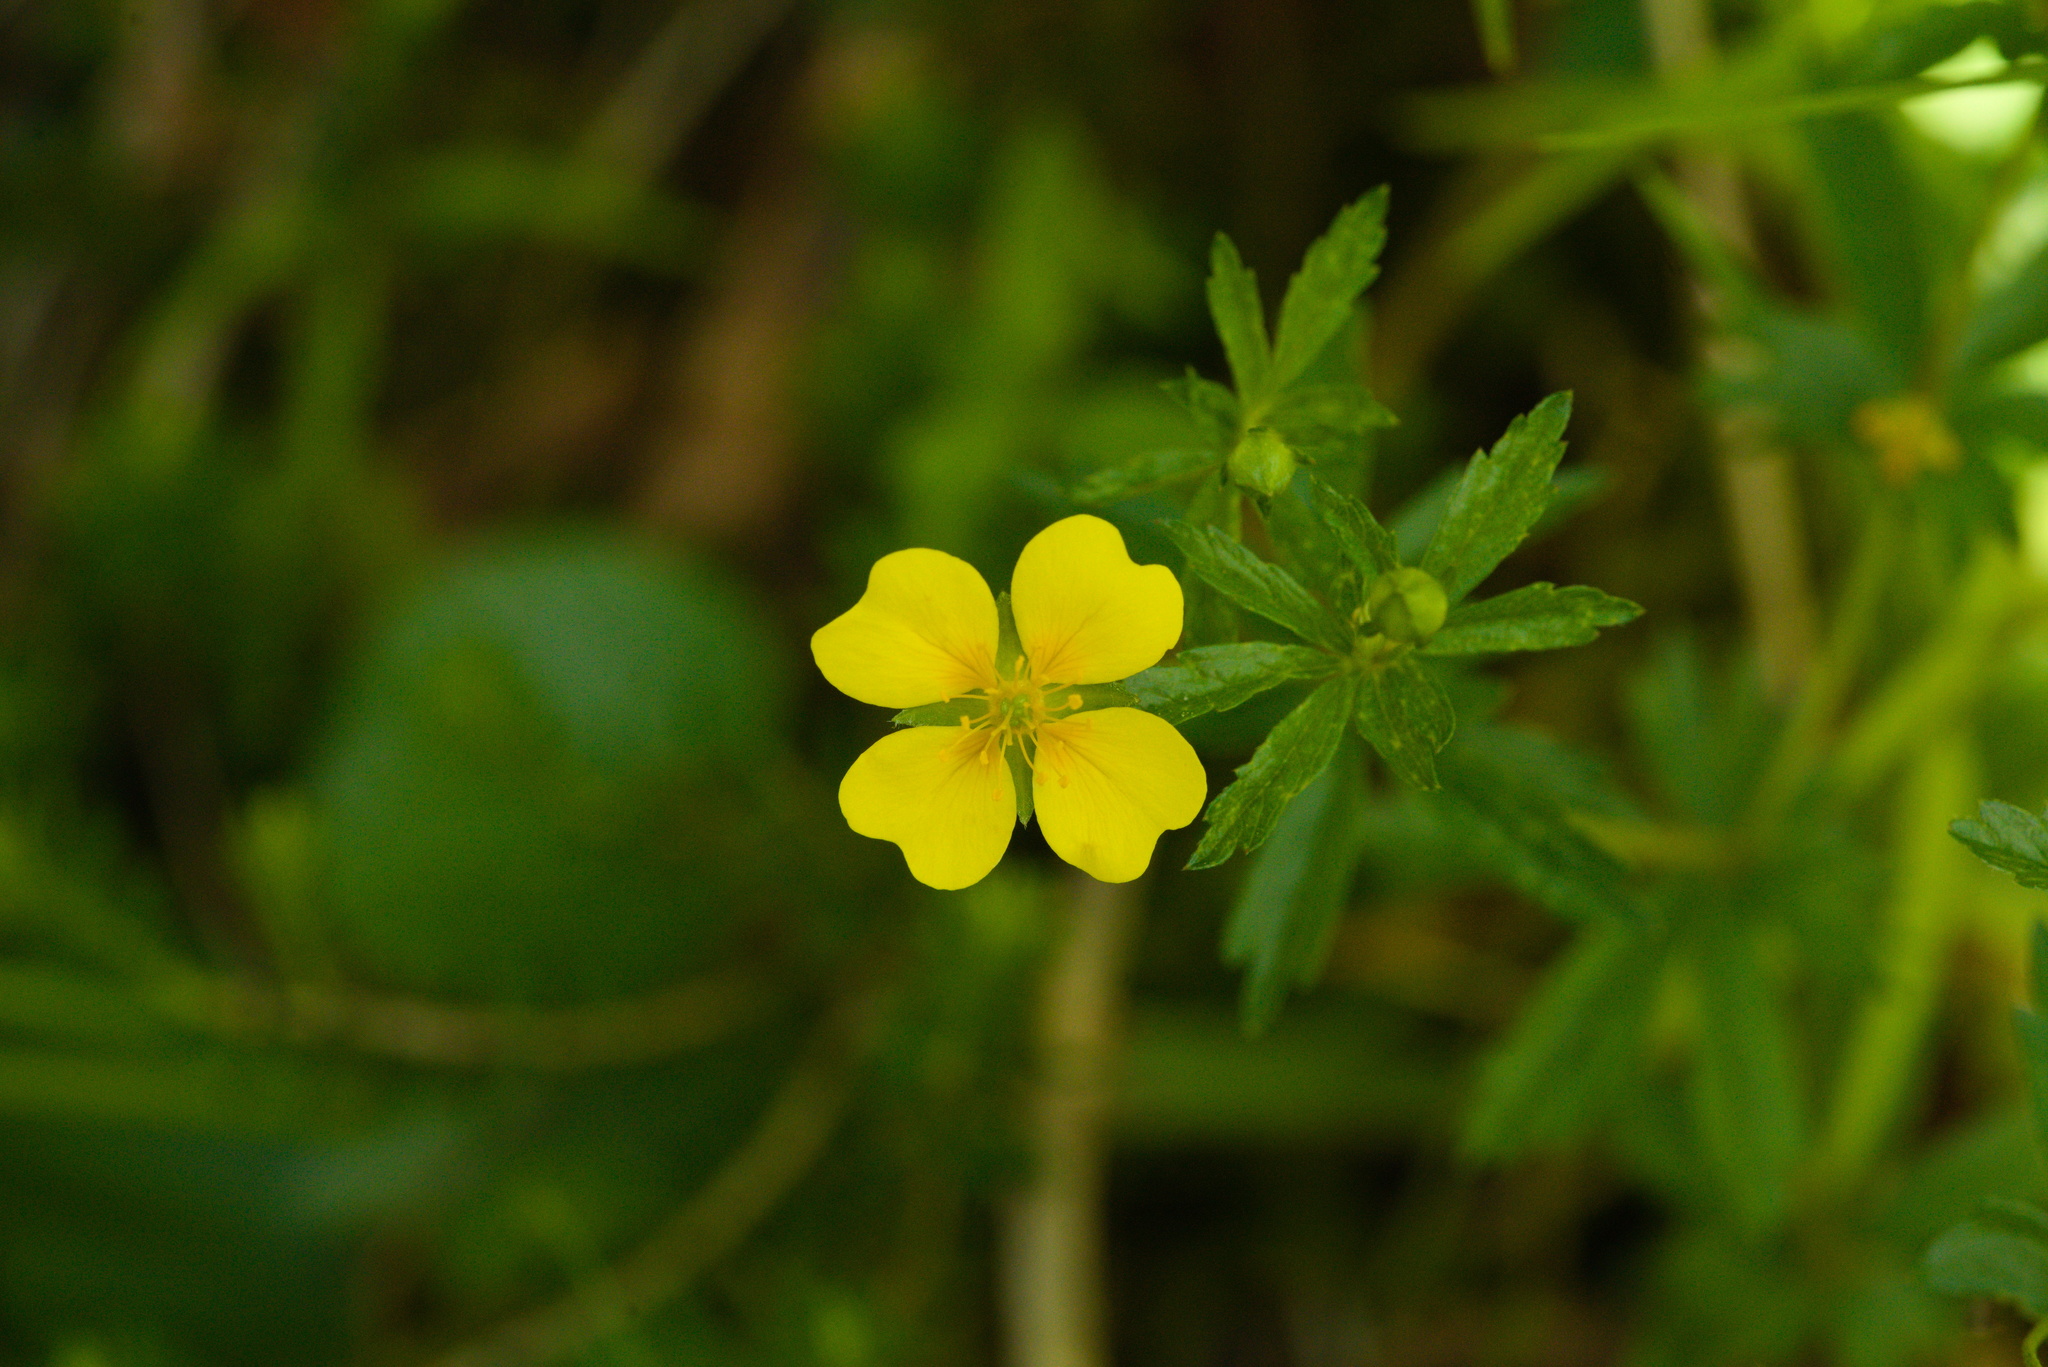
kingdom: Plantae
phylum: Tracheophyta
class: Magnoliopsida
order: Rosales
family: Rosaceae
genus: Potentilla
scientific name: Potentilla erecta
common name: Tormentil
